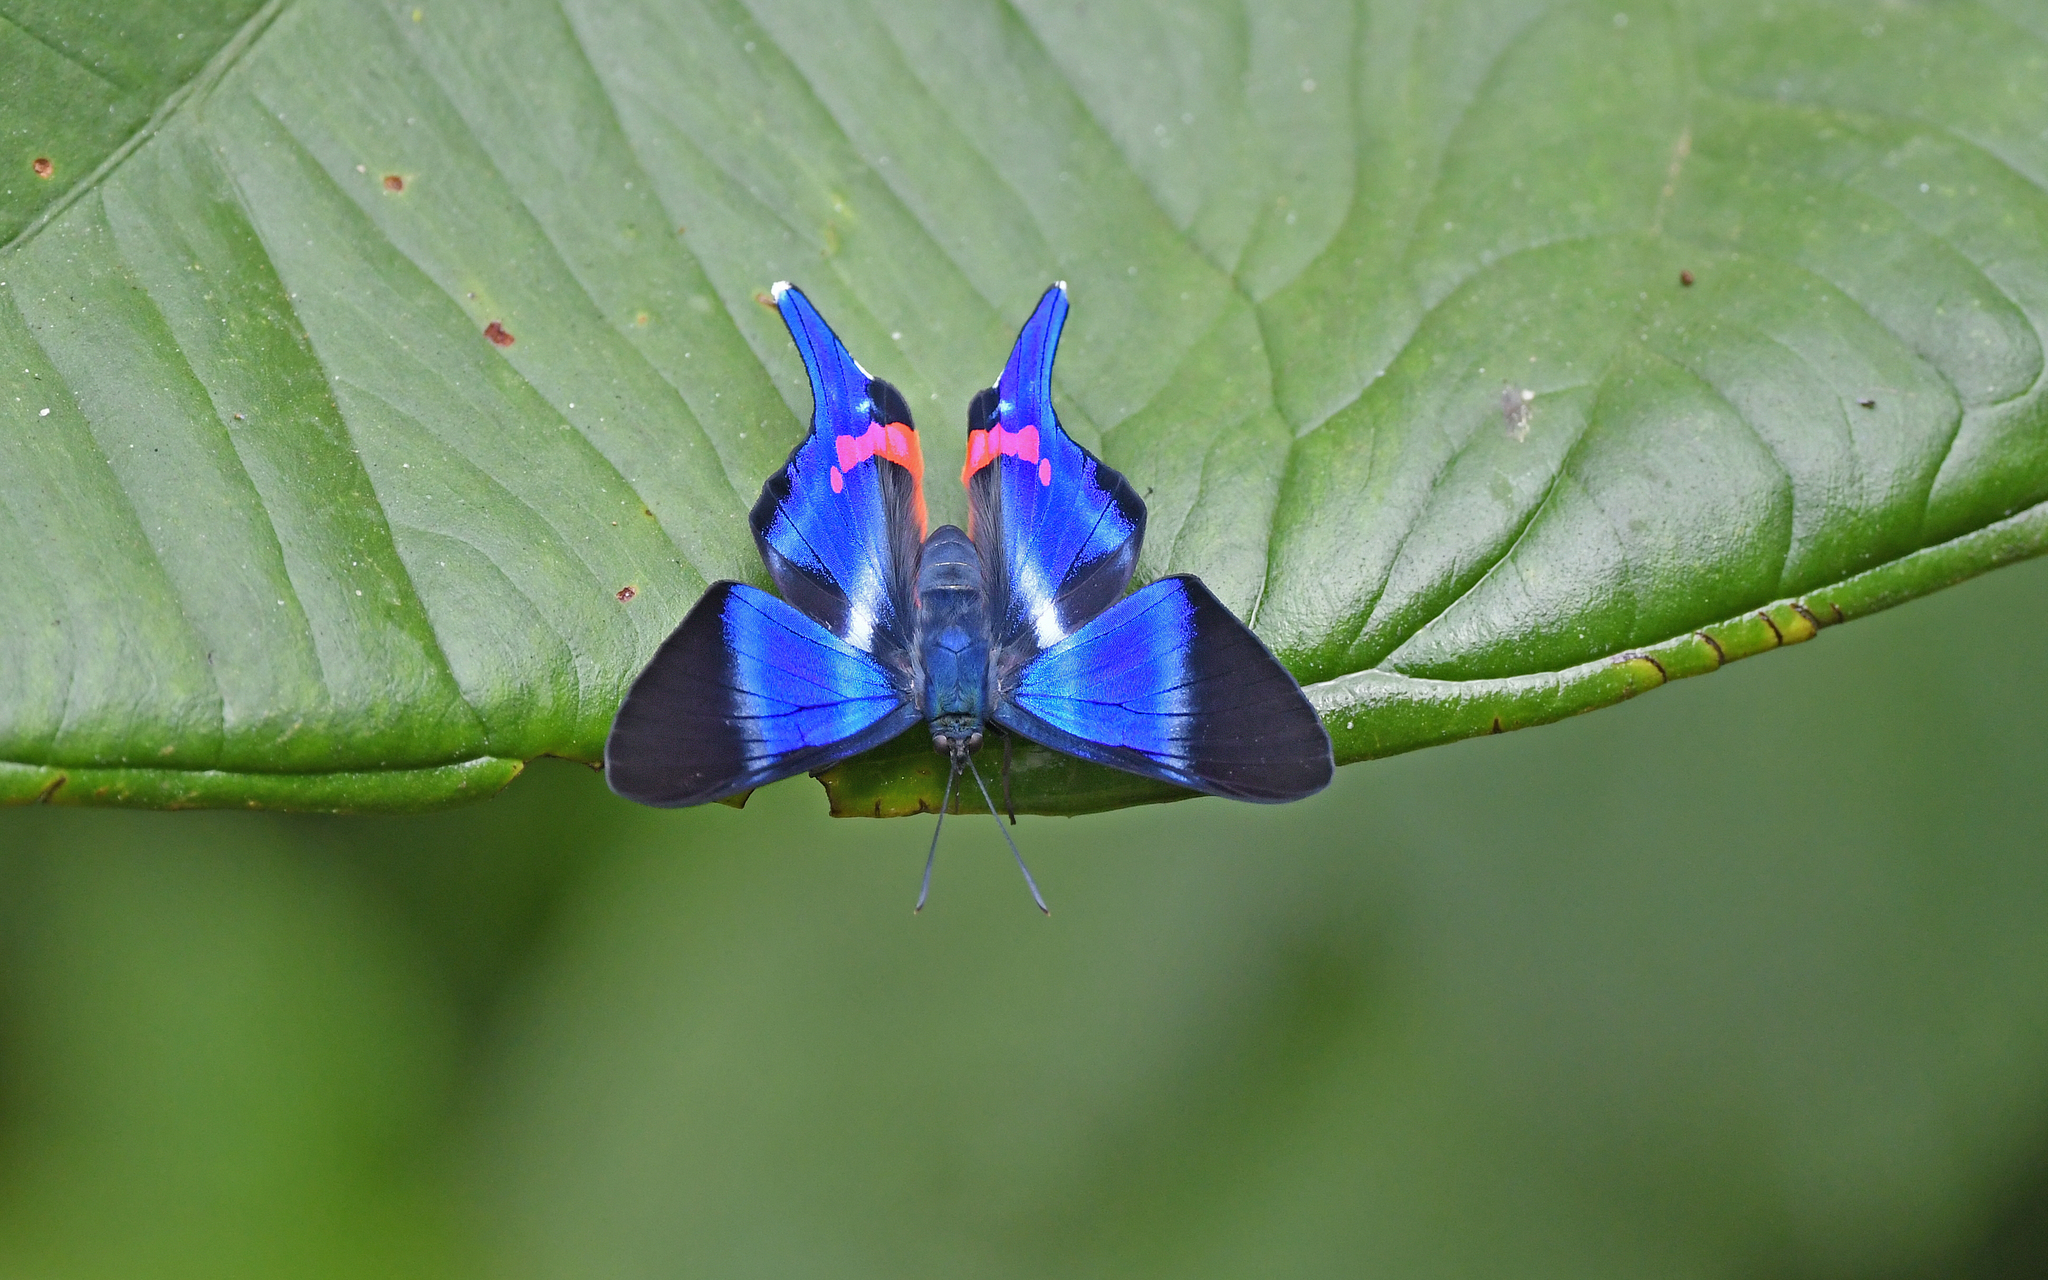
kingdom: Animalia
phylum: Arthropoda
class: Insecta
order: Lepidoptera
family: Riodinidae
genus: Rhetus
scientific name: Rhetus dysonii
